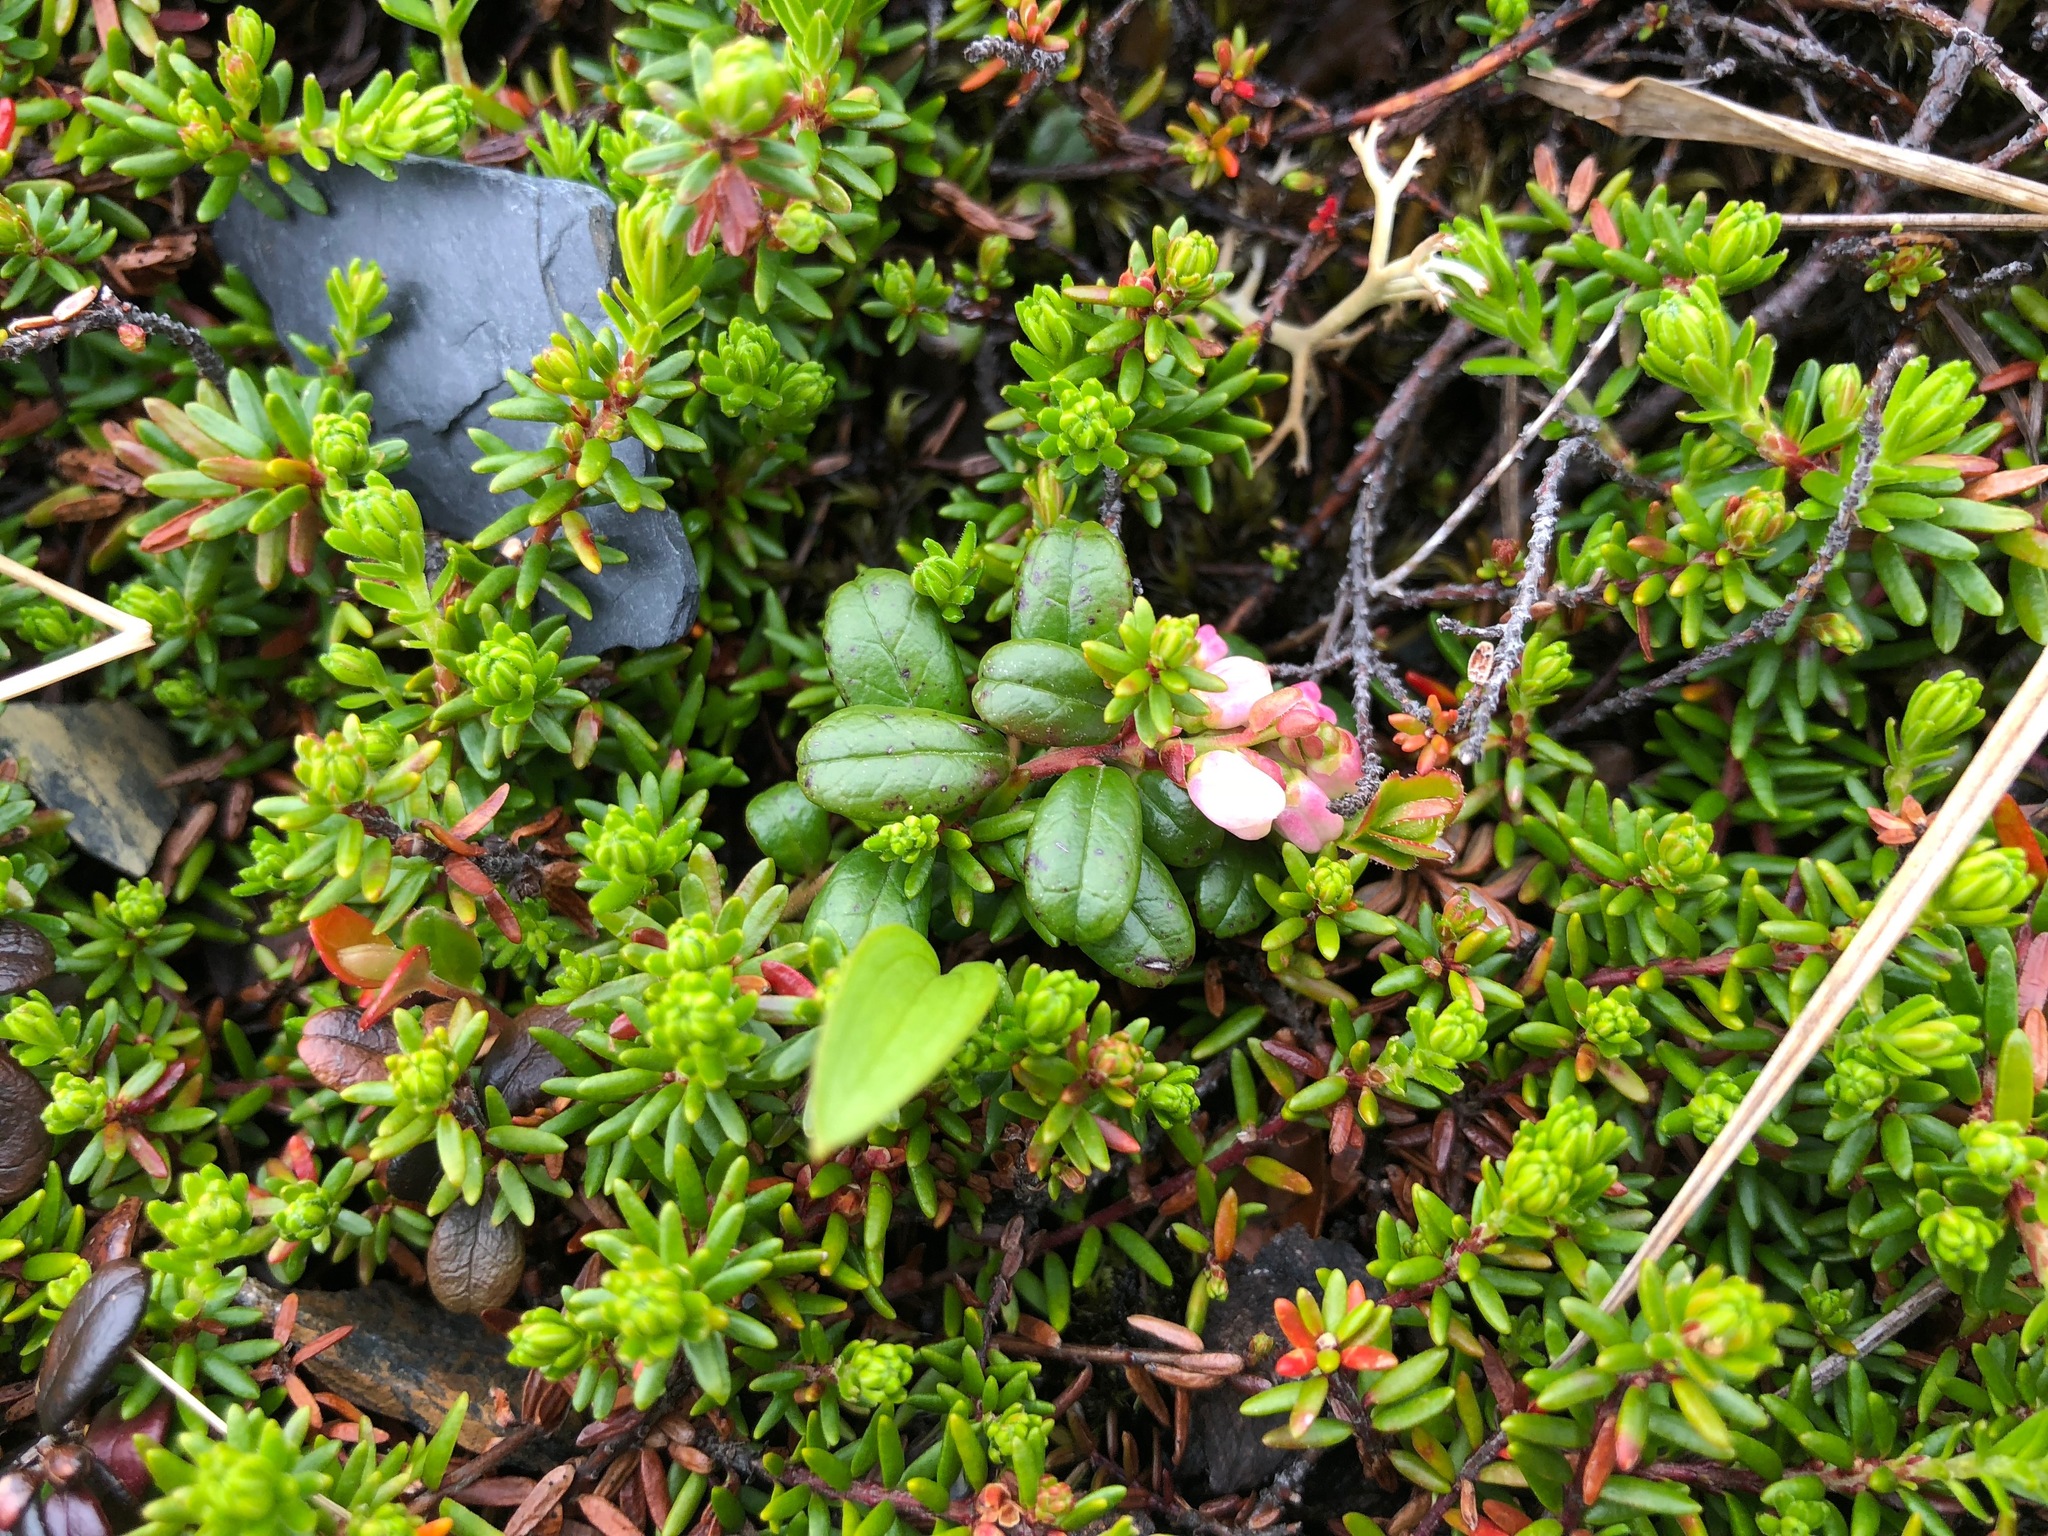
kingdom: Plantae
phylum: Tracheophyta
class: Magnoliopsida
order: Ericales
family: Ericaceae
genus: Vaccinium
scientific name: Vaccinium vitis-idaea
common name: Cowberry
